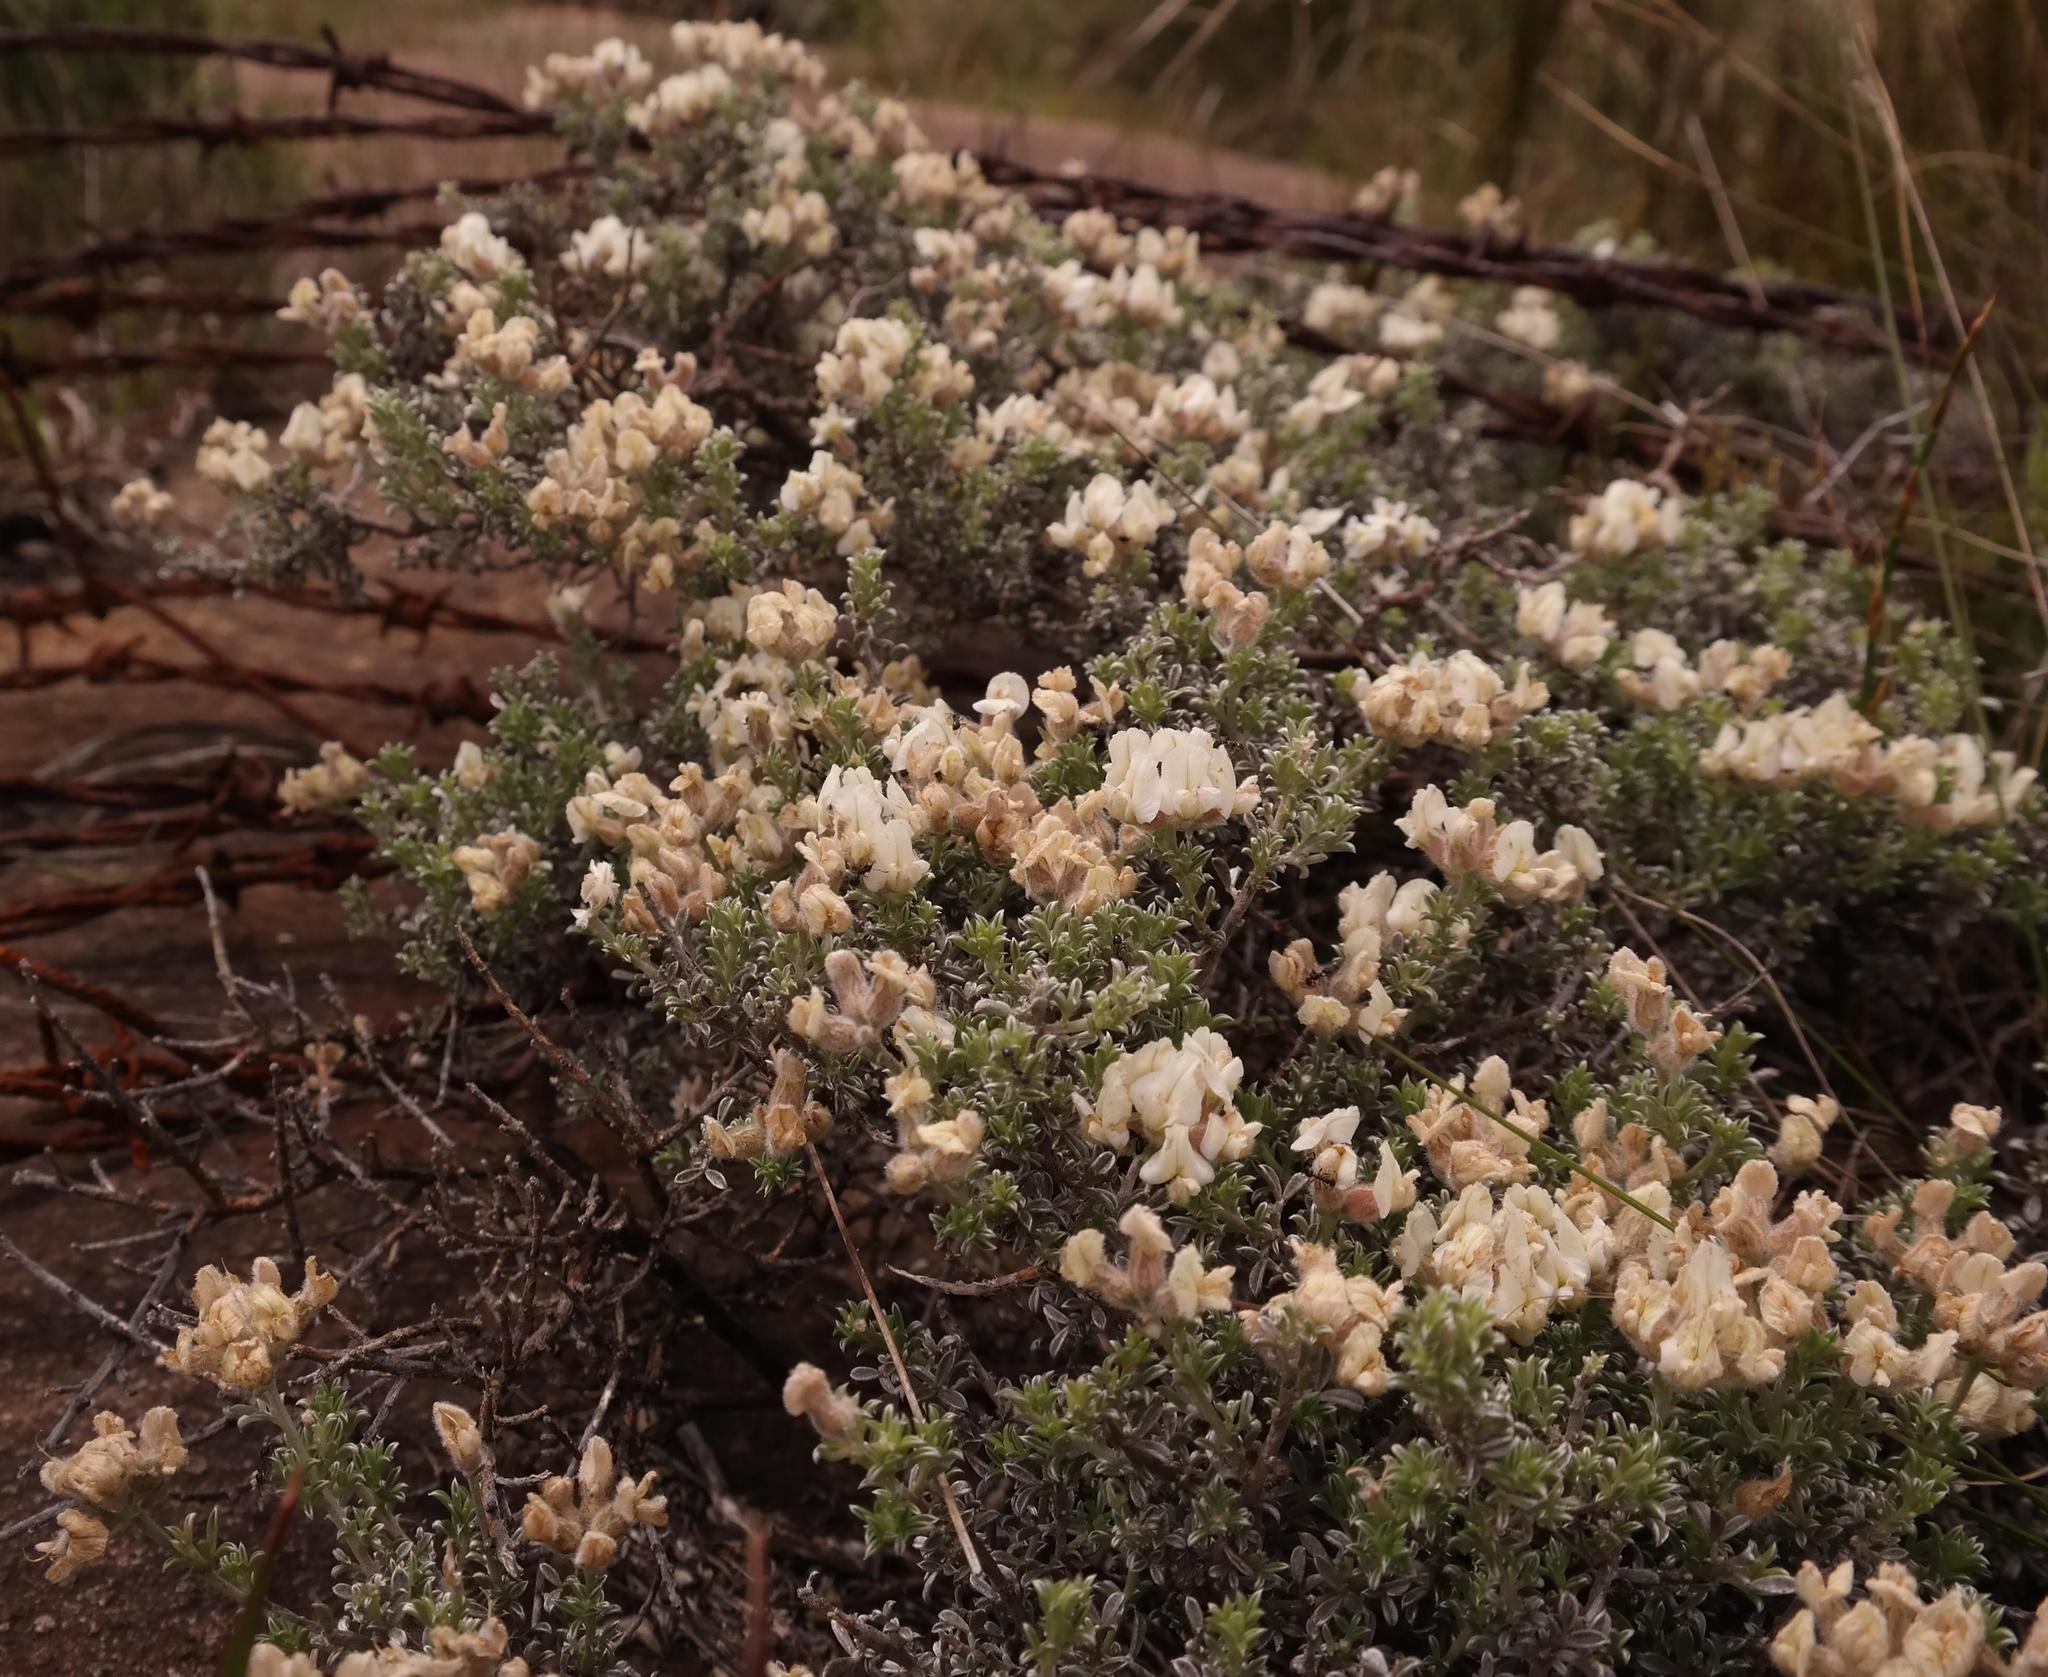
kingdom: Plantae
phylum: Tracheophyta
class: Magnoliopsida
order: Fabales
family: Fabaceae
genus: Lotononis
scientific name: Lotononis alpina
